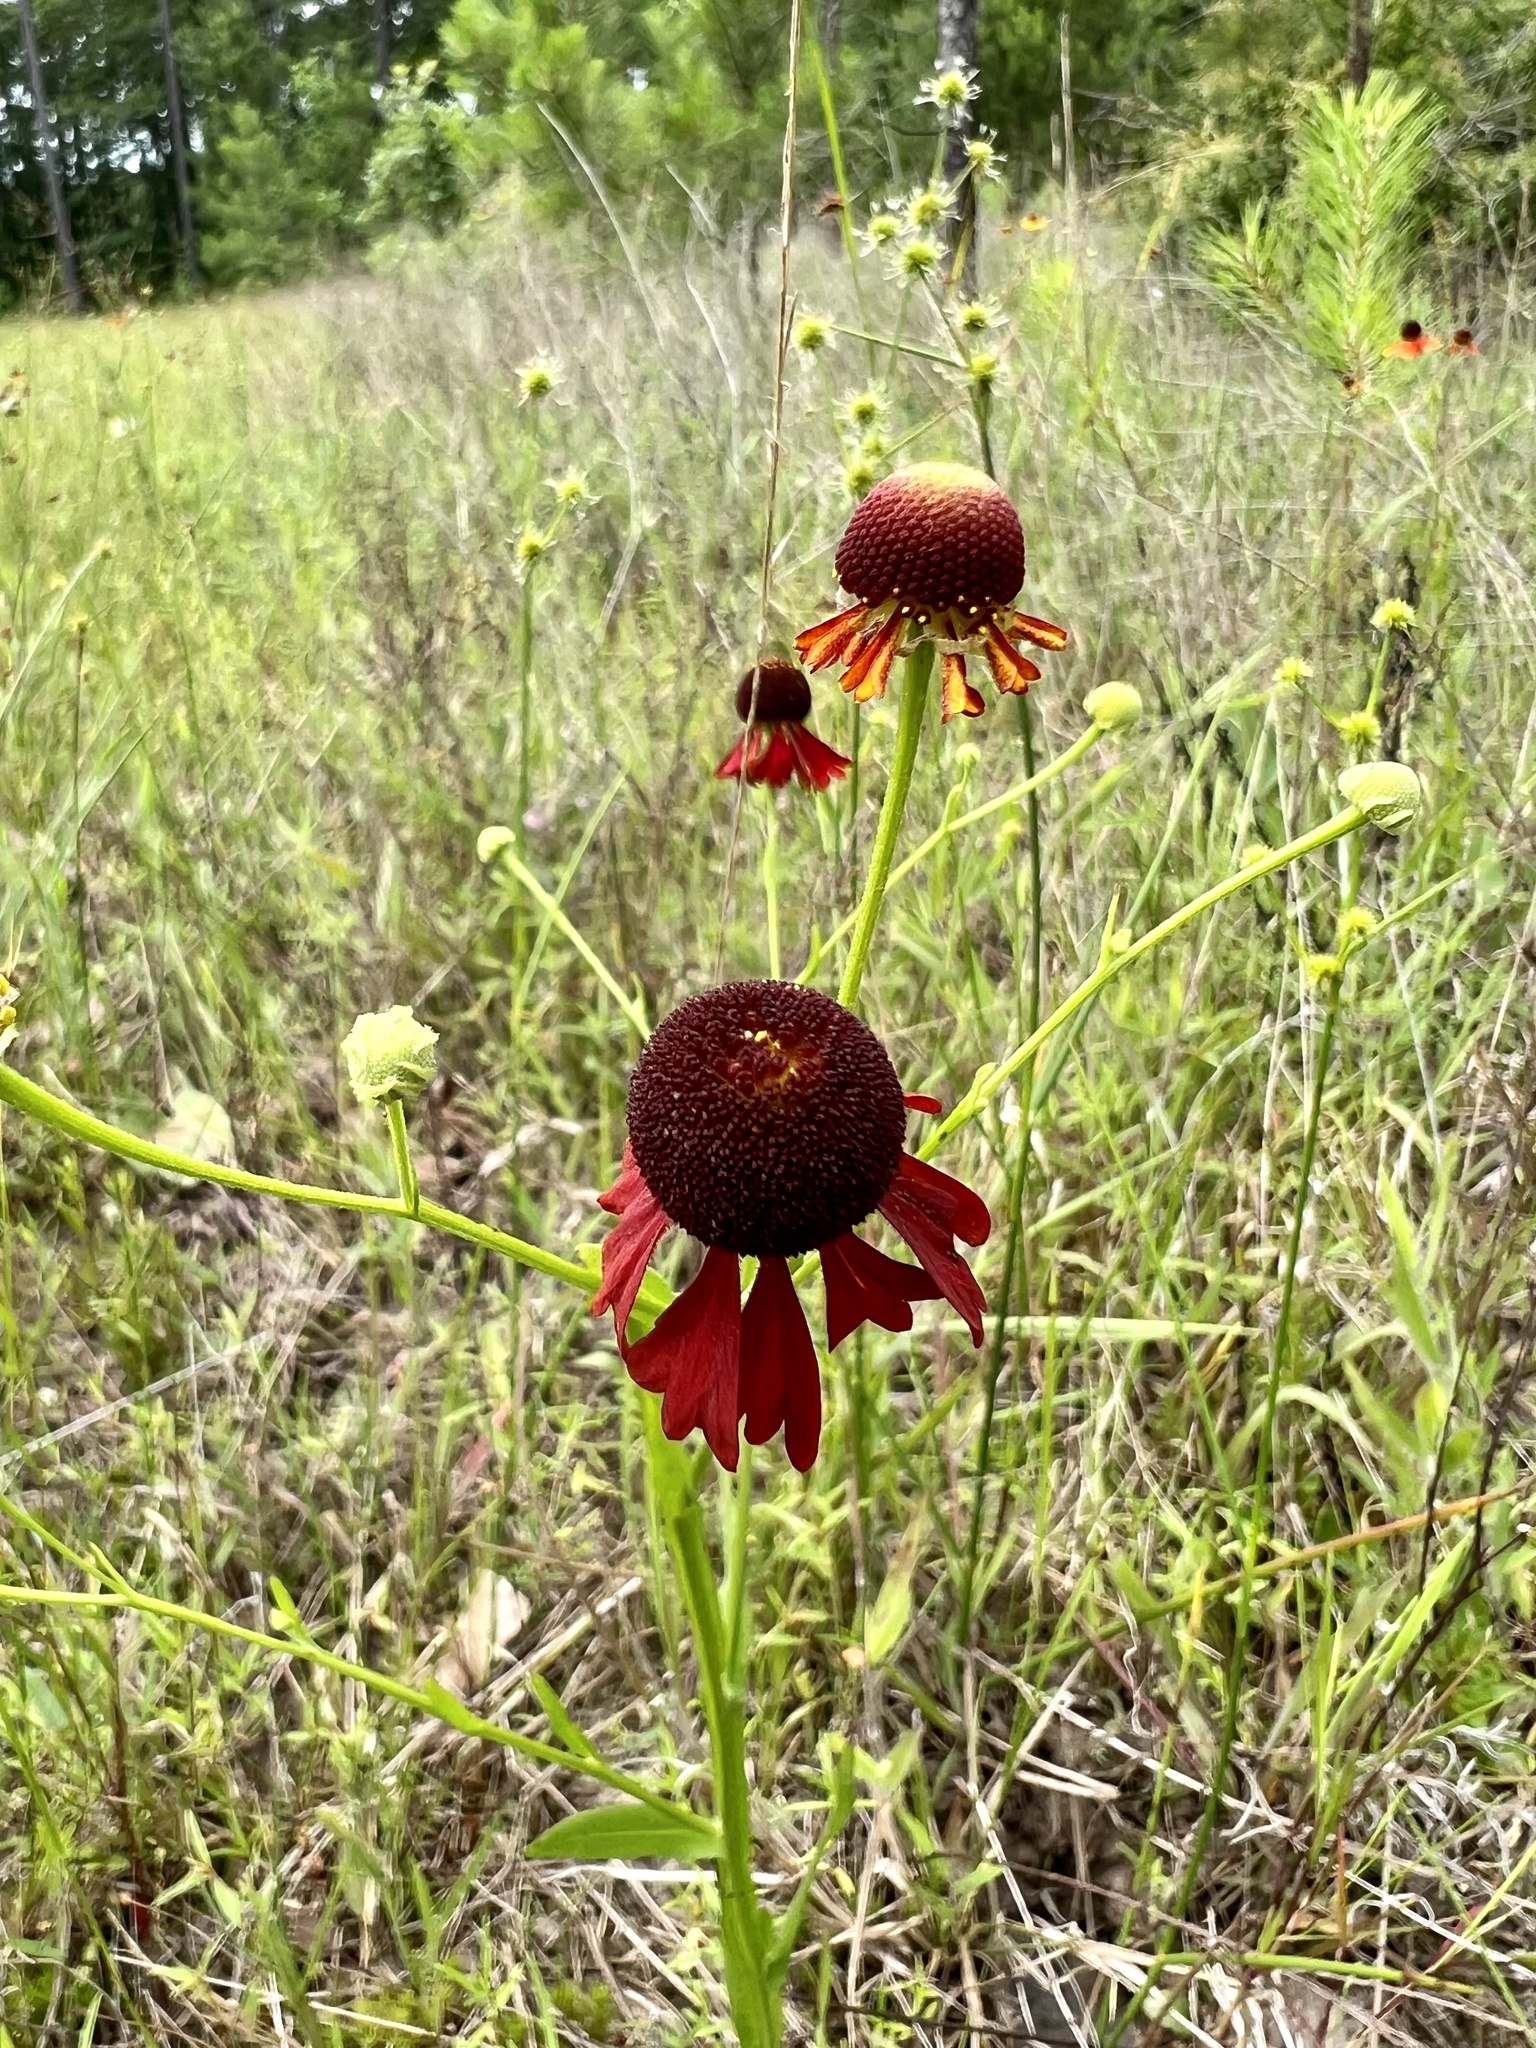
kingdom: Plantae
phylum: Tracheophyta
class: Magnoliopsida
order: Asterales
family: Asteraceae
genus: Helenium
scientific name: Helenium flexuosum
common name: Naked-flowered sneezeweed
